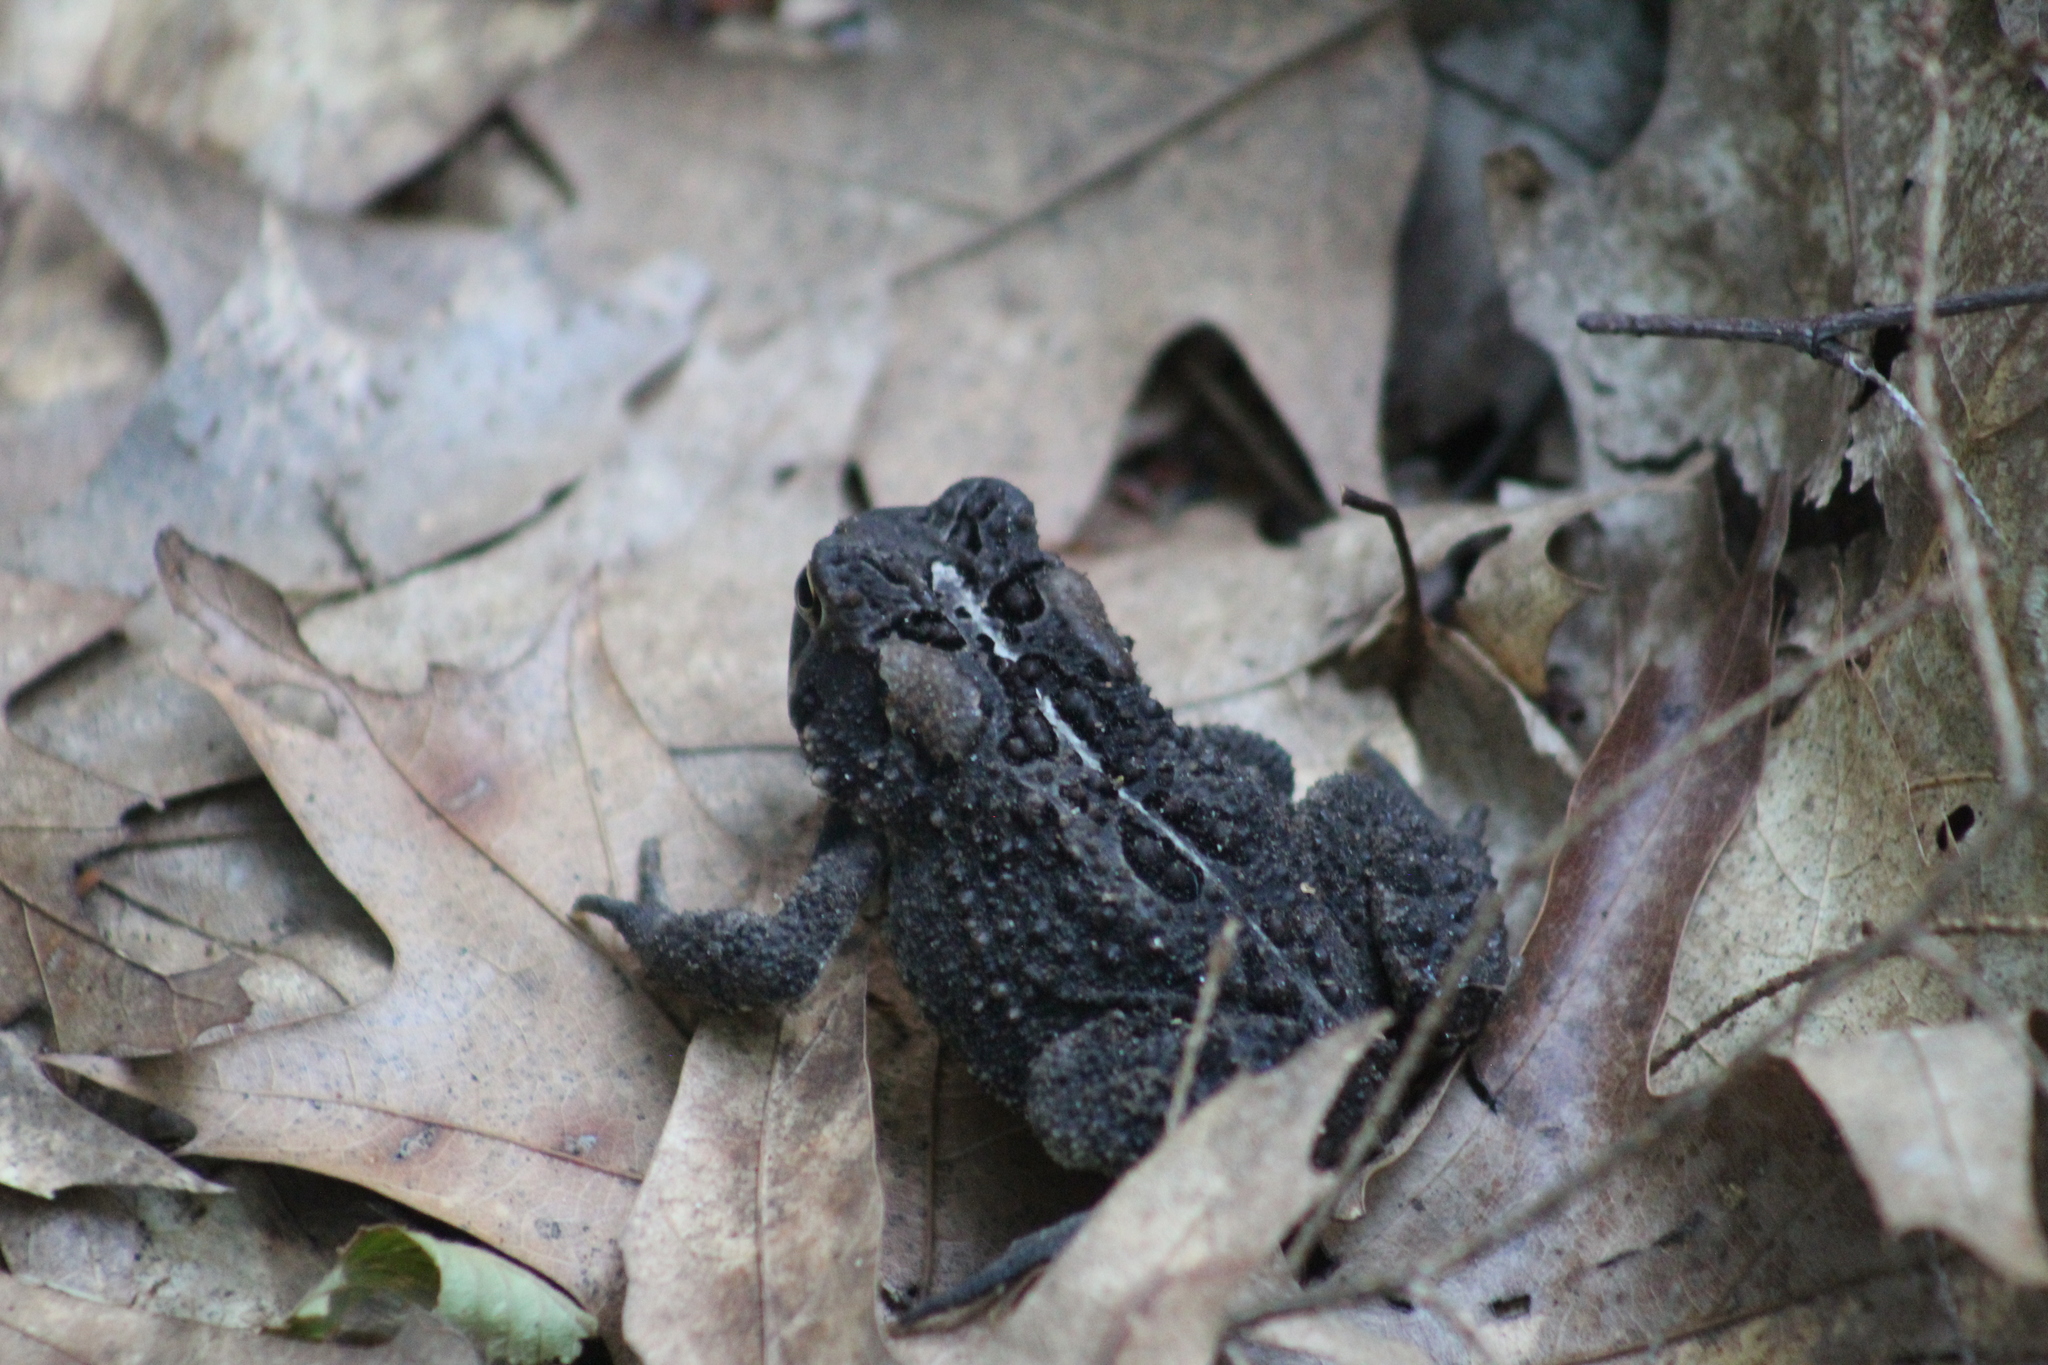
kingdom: Animalia
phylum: Chordata
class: Amphibia
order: Anura
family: Bufonidae
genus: Anaxyrus
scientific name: Anaxyrus americanus
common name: American toad
